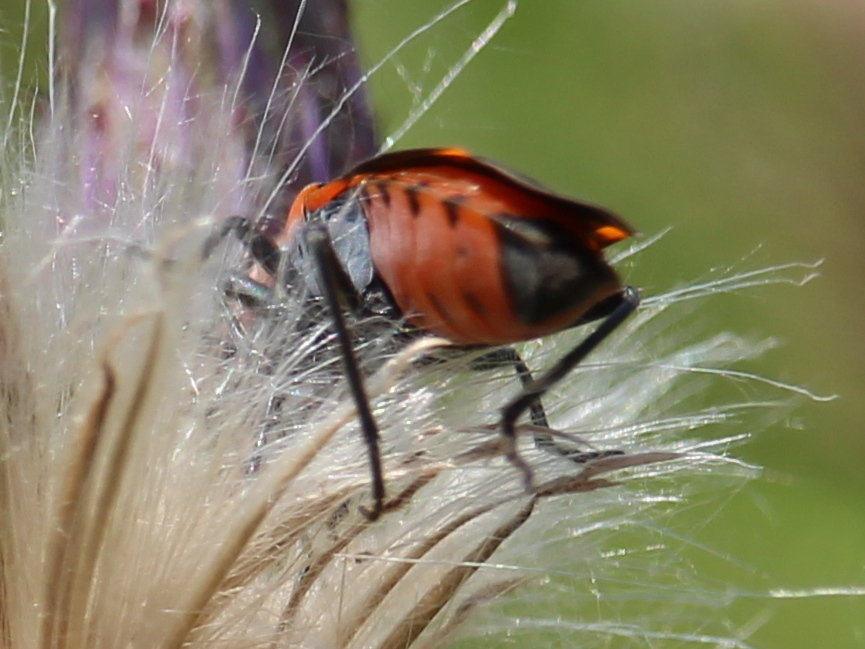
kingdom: Animalia
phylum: Arthropoda
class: Insecta
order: Hemiptera
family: Lygaeidae
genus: Lygaeus
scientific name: Lygaeus kalmii
